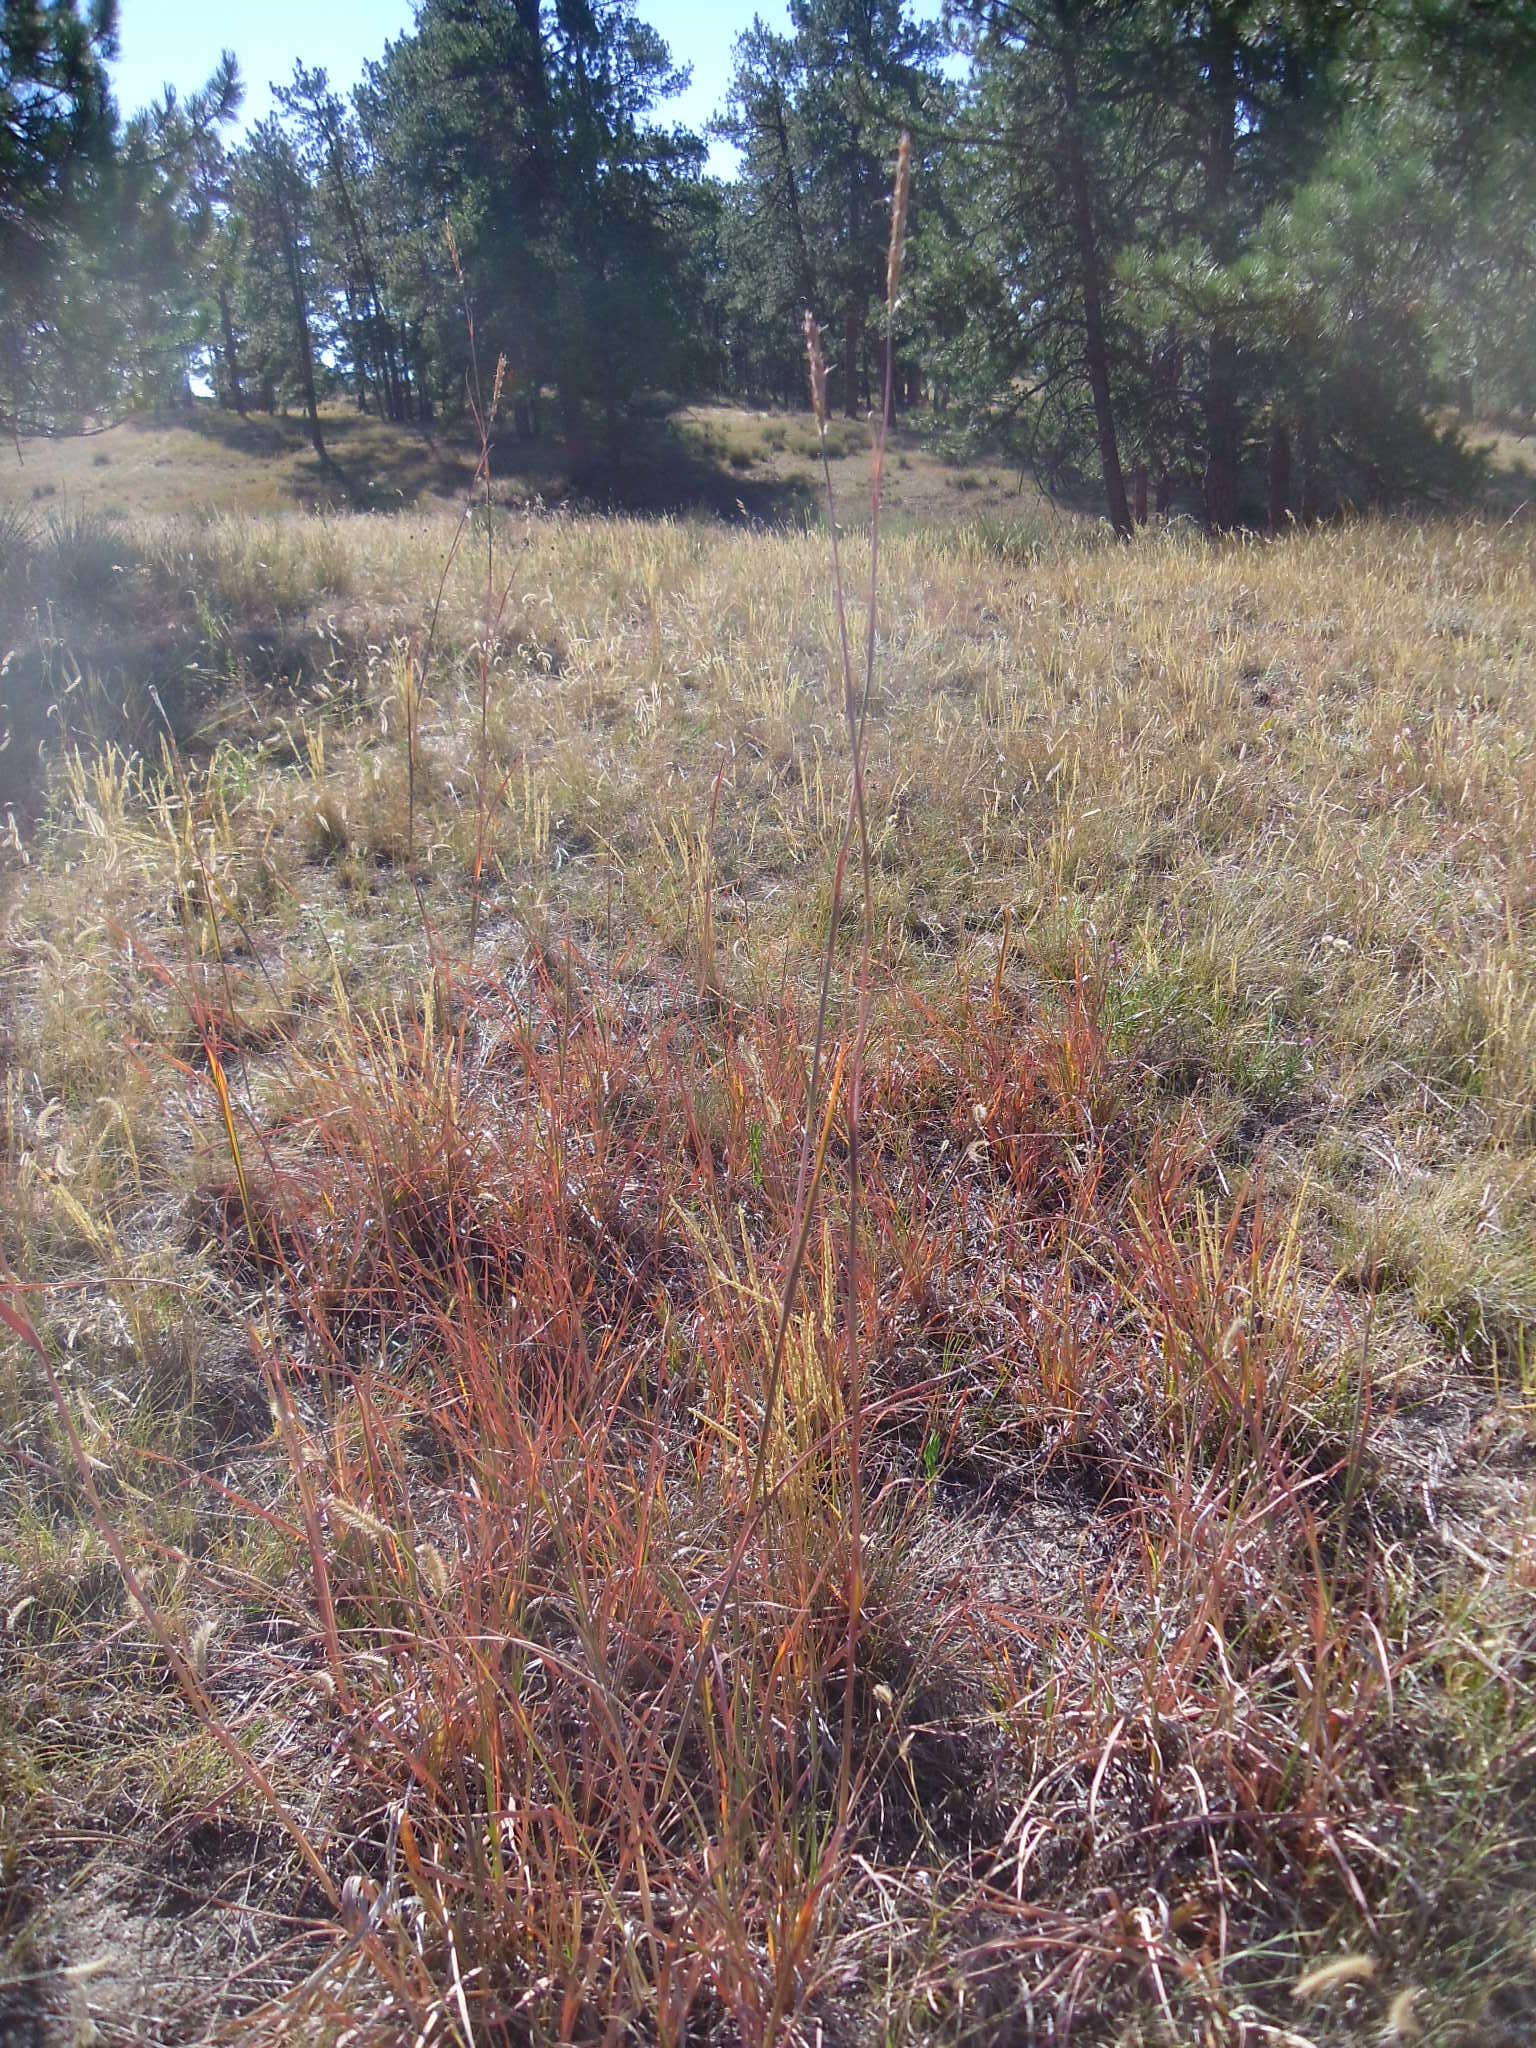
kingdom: Plantae
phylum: Tracheophyta
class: Liliopsida
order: Poales
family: Poaceae
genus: Andropogon
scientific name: Andropogon gerardi
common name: Big bluestem
